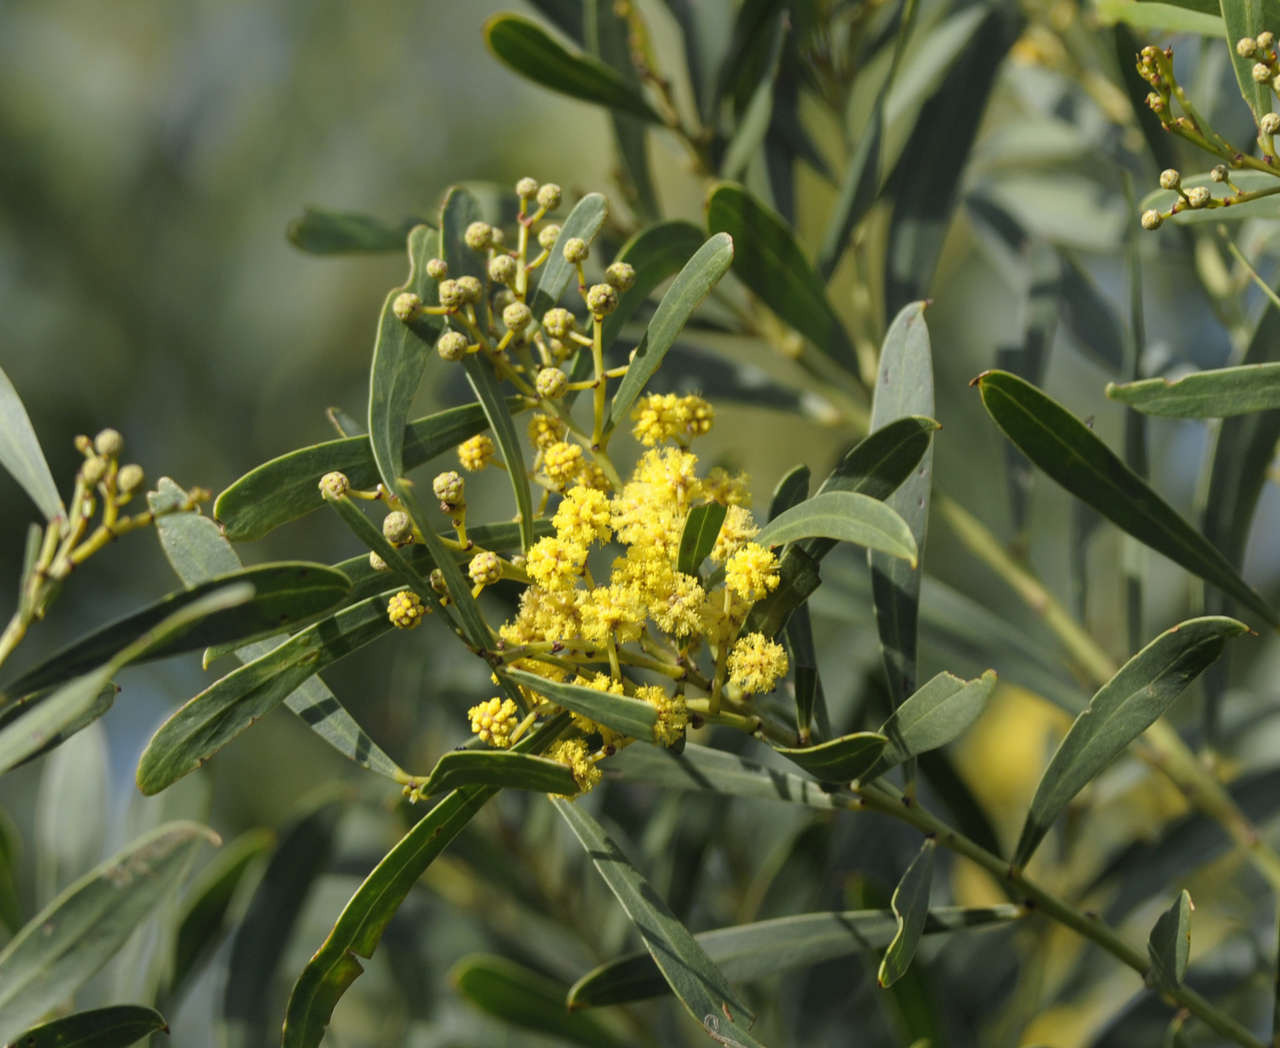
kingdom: Plantae
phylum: Tracheophyta
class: Magnoliopsida
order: Fabales
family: Fabaceae
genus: Acacia
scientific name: Acacia uncifolia
